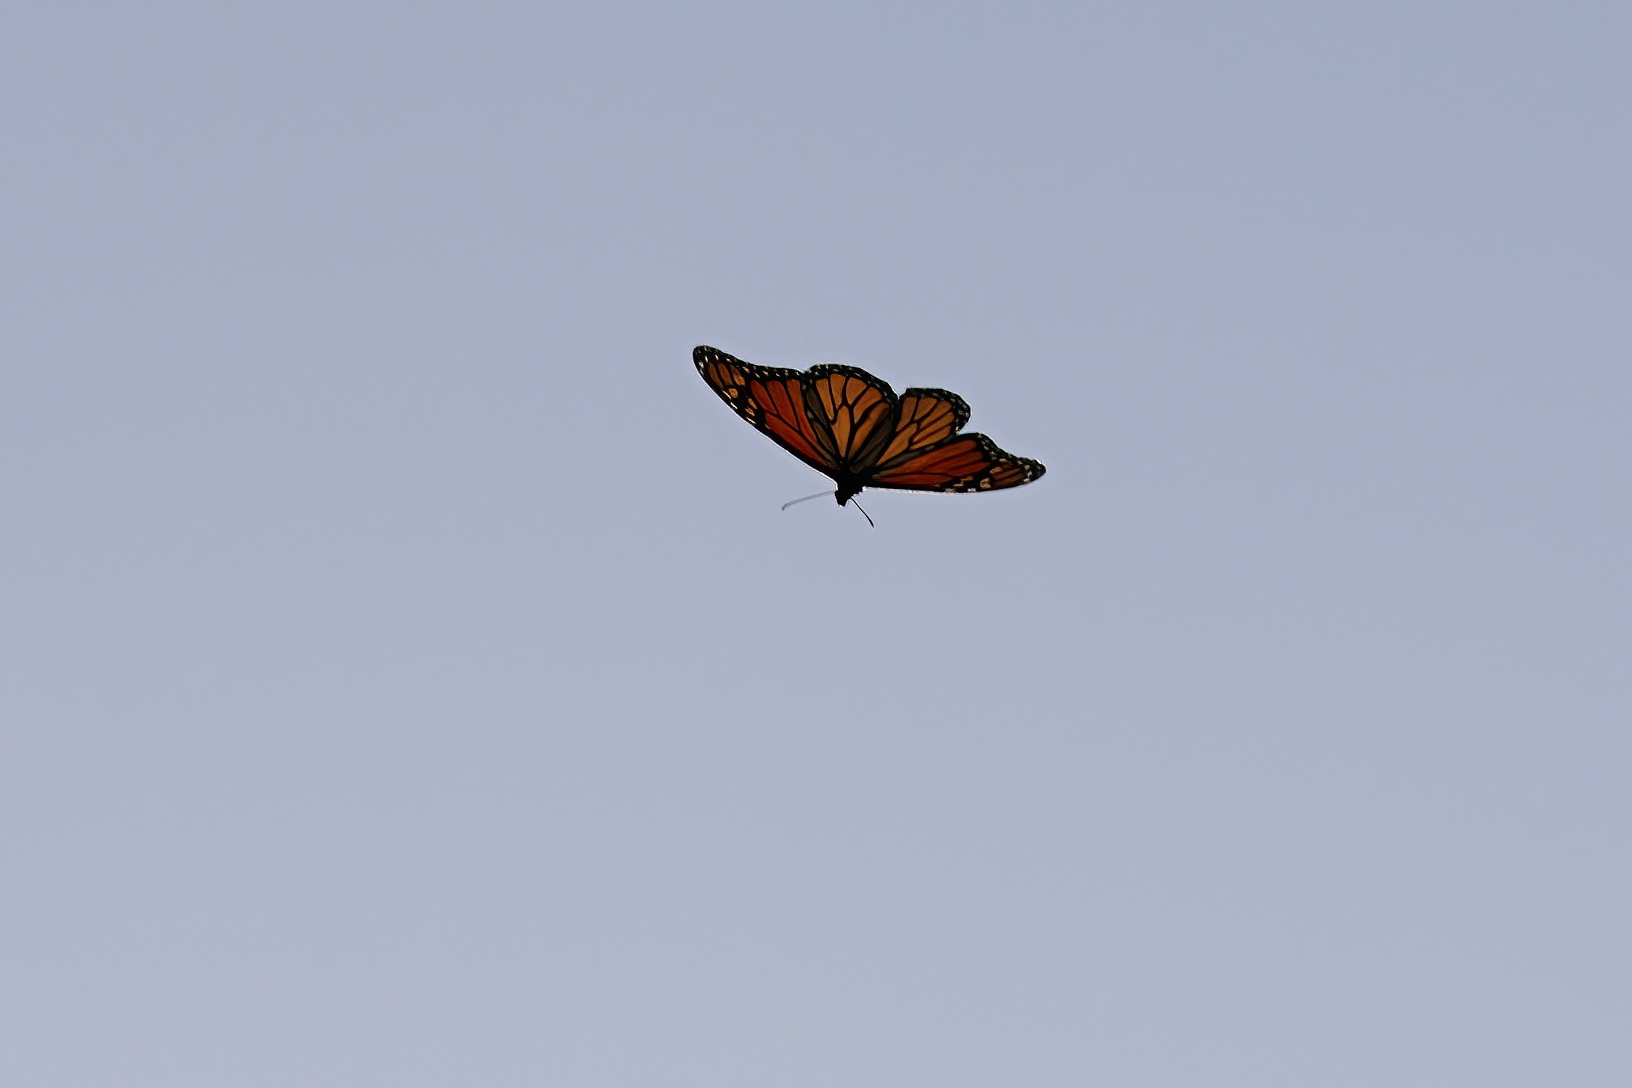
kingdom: Animalia
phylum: Arthropoda
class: Insecta
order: Lepidoptera
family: Nymphalidae
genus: Danaus
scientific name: Danaus plexippus
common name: Monarch
